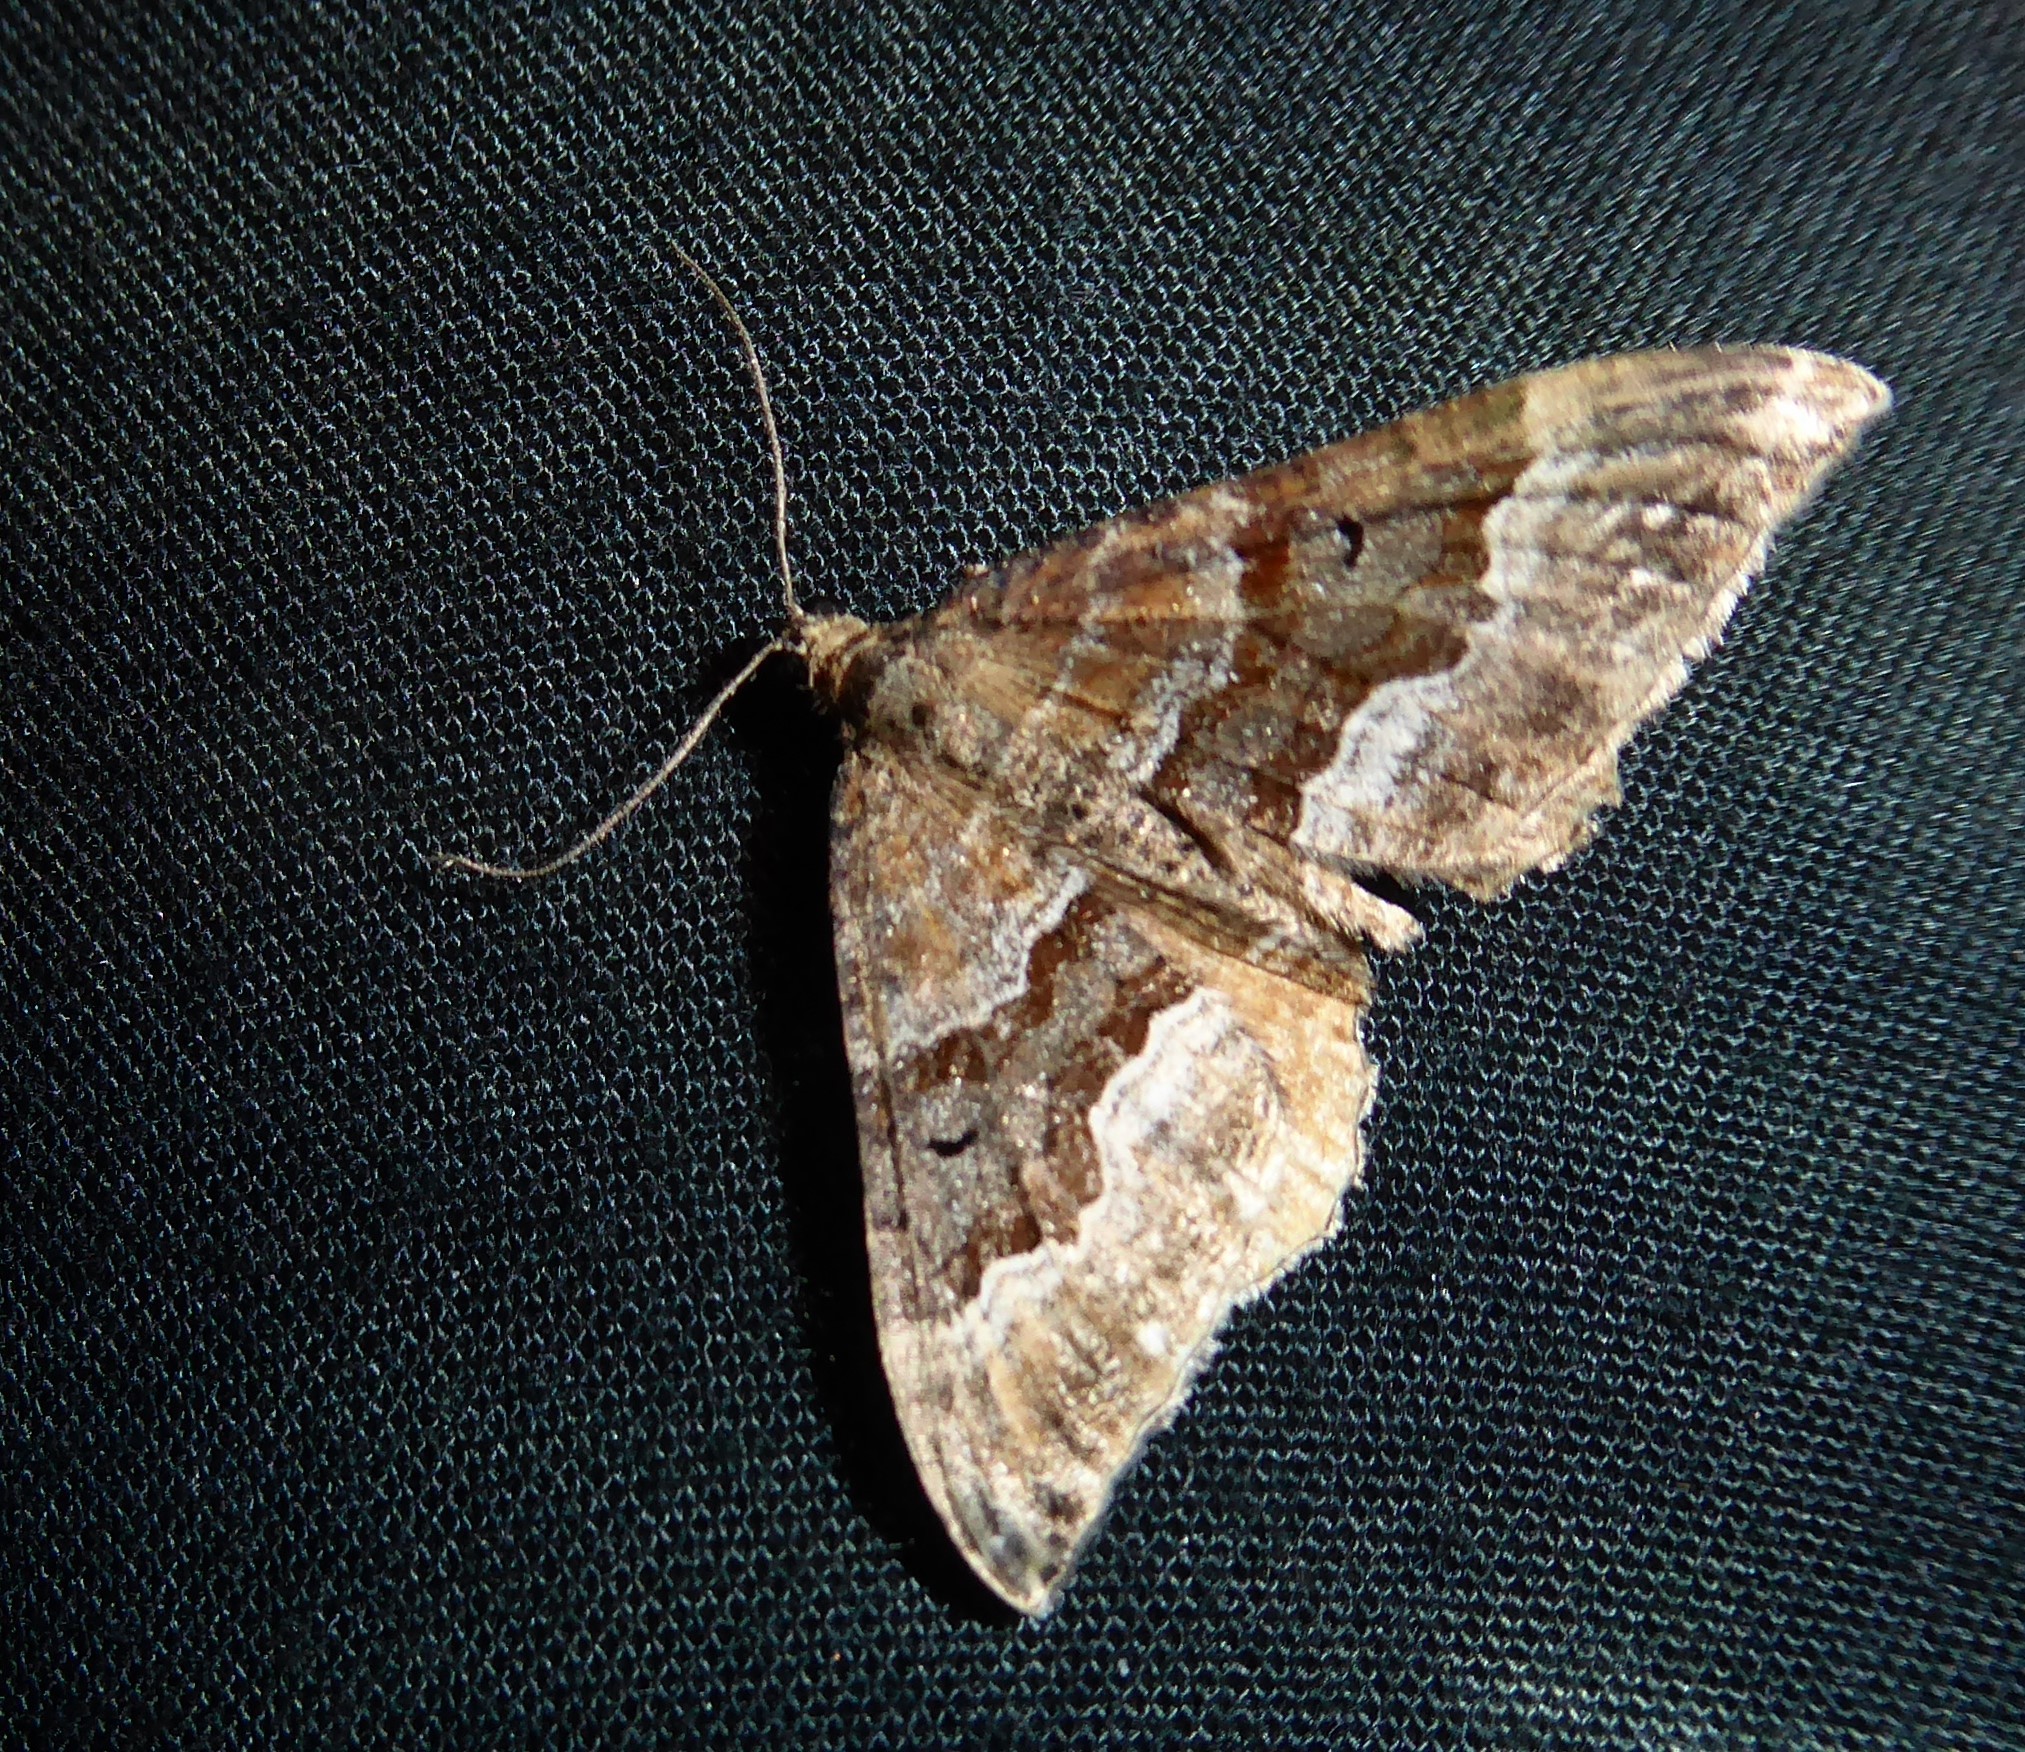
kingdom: Animalia
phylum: Arthropoda
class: Insecta
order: Lepidoptera
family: Geometridae
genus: Hydriomena
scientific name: Hydriomena deltoidata
